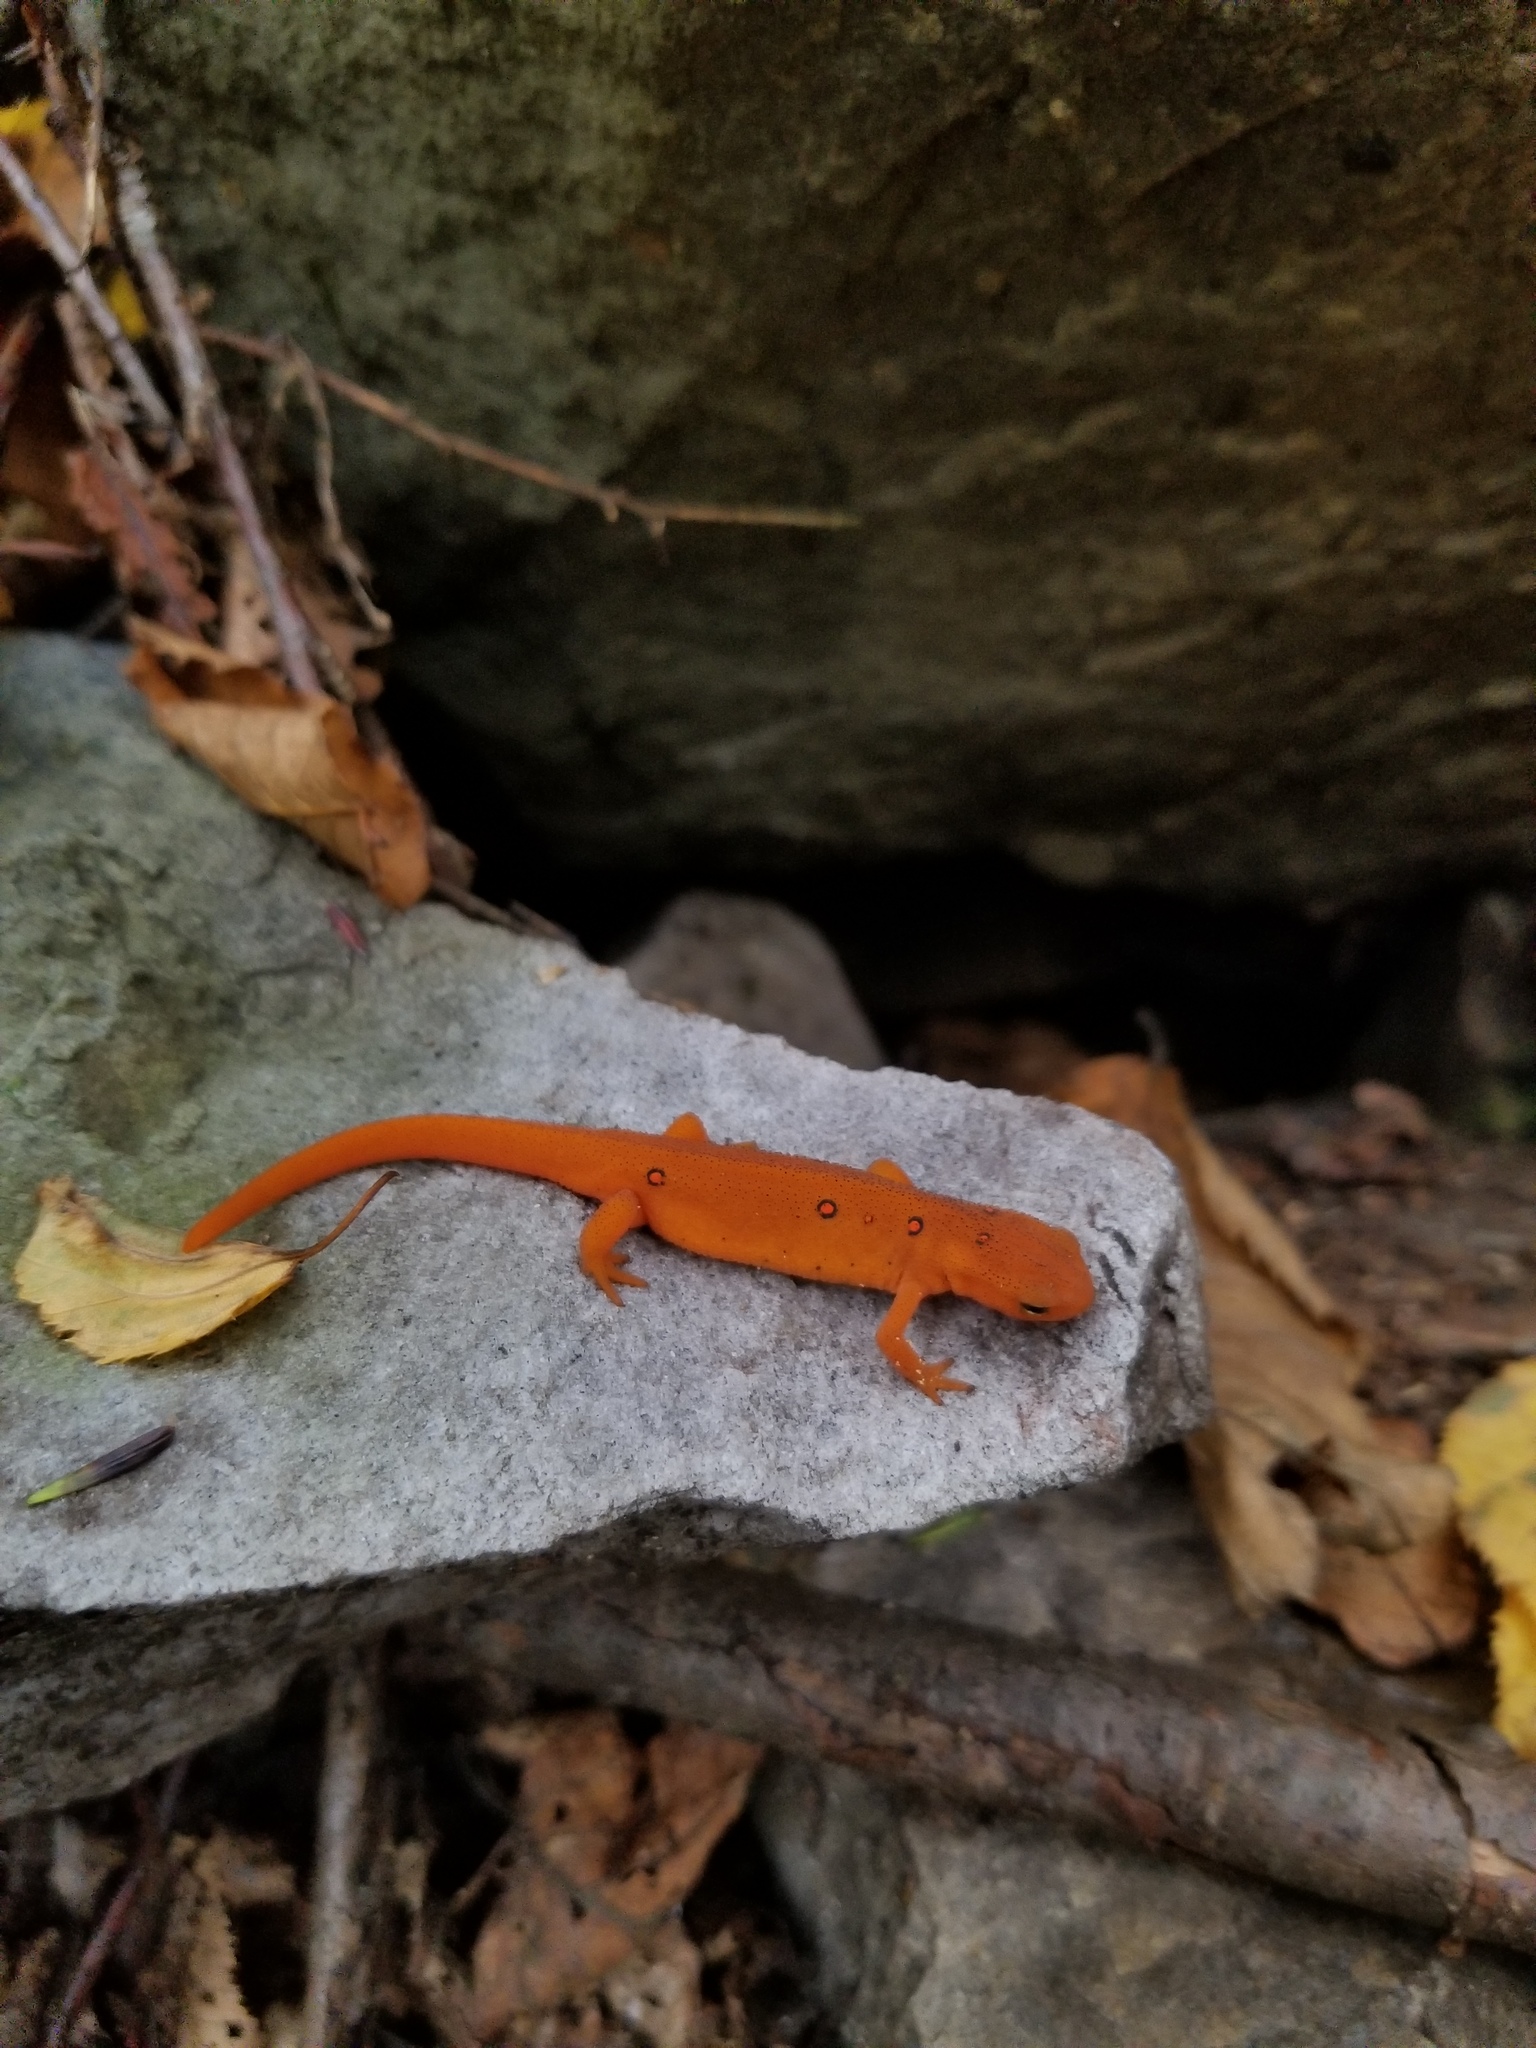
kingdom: Animalia
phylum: Chordata
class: Amphibia
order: Caudata
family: Salamandridae
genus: Notophthalmus
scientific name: Notophthalmus viridescens
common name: Eastern newt
